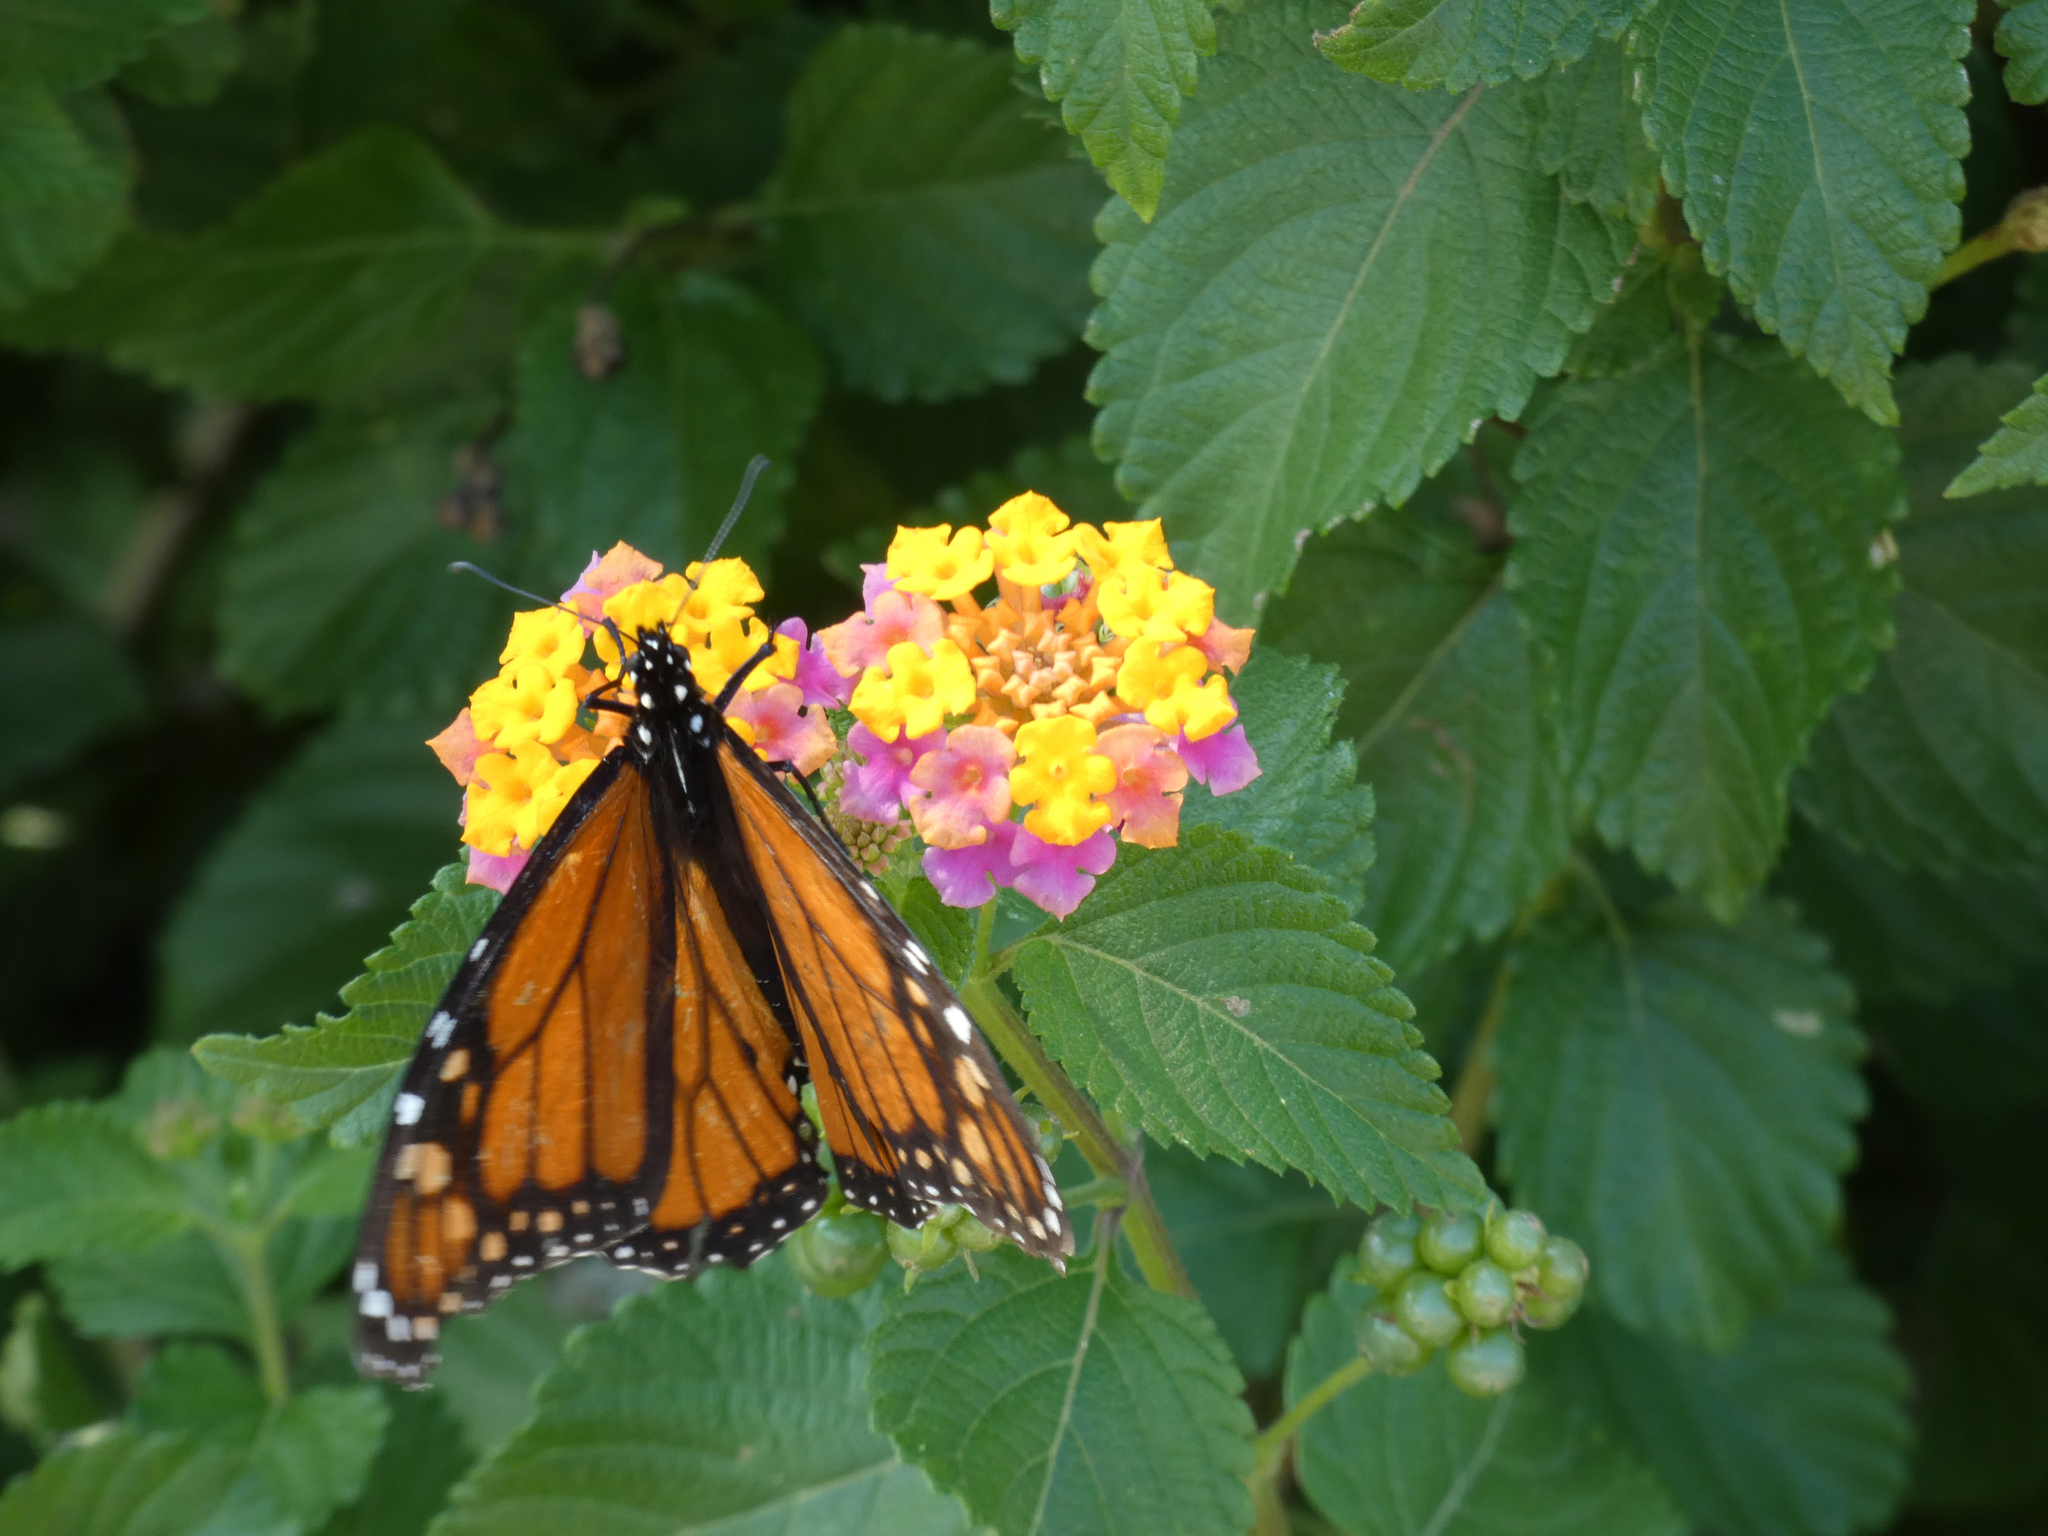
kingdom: Animalia
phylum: Arthropoda
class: Insecta
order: Lepidoptera
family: Nymphalidae
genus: Danaus
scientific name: Danaus plexippus
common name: Monarch
